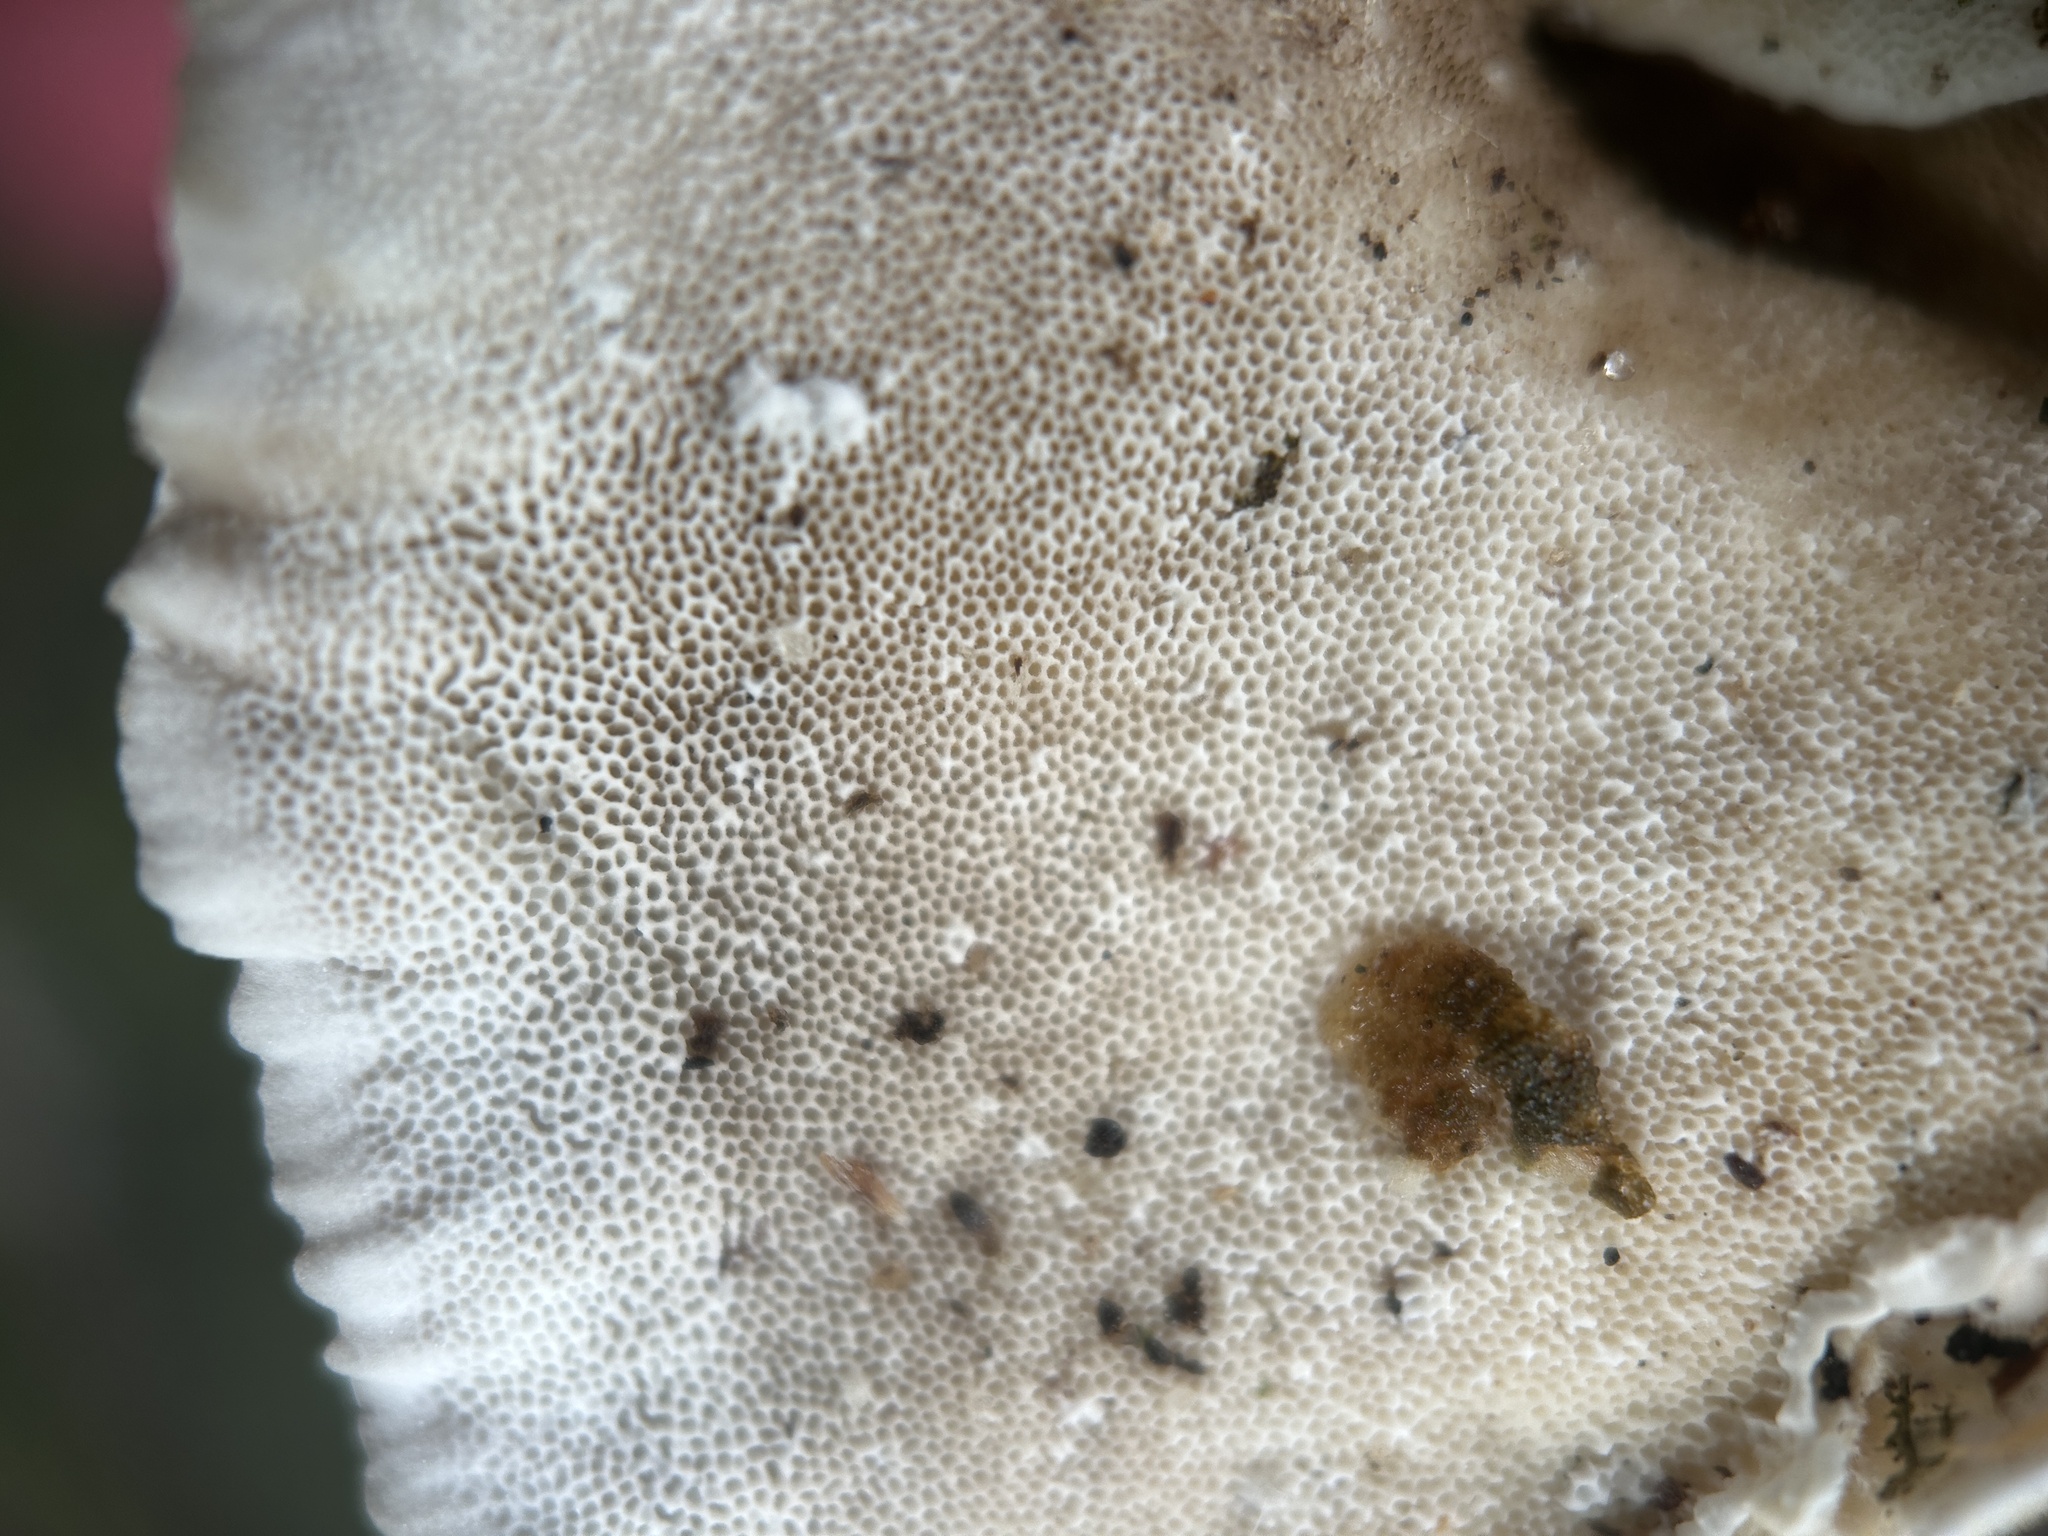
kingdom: Fungi
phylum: Basidiomycota
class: Agaricomycetes
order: Polyporales
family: Polyporaceae
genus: Trametes
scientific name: Trametes versicolor
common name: Turkeytail
